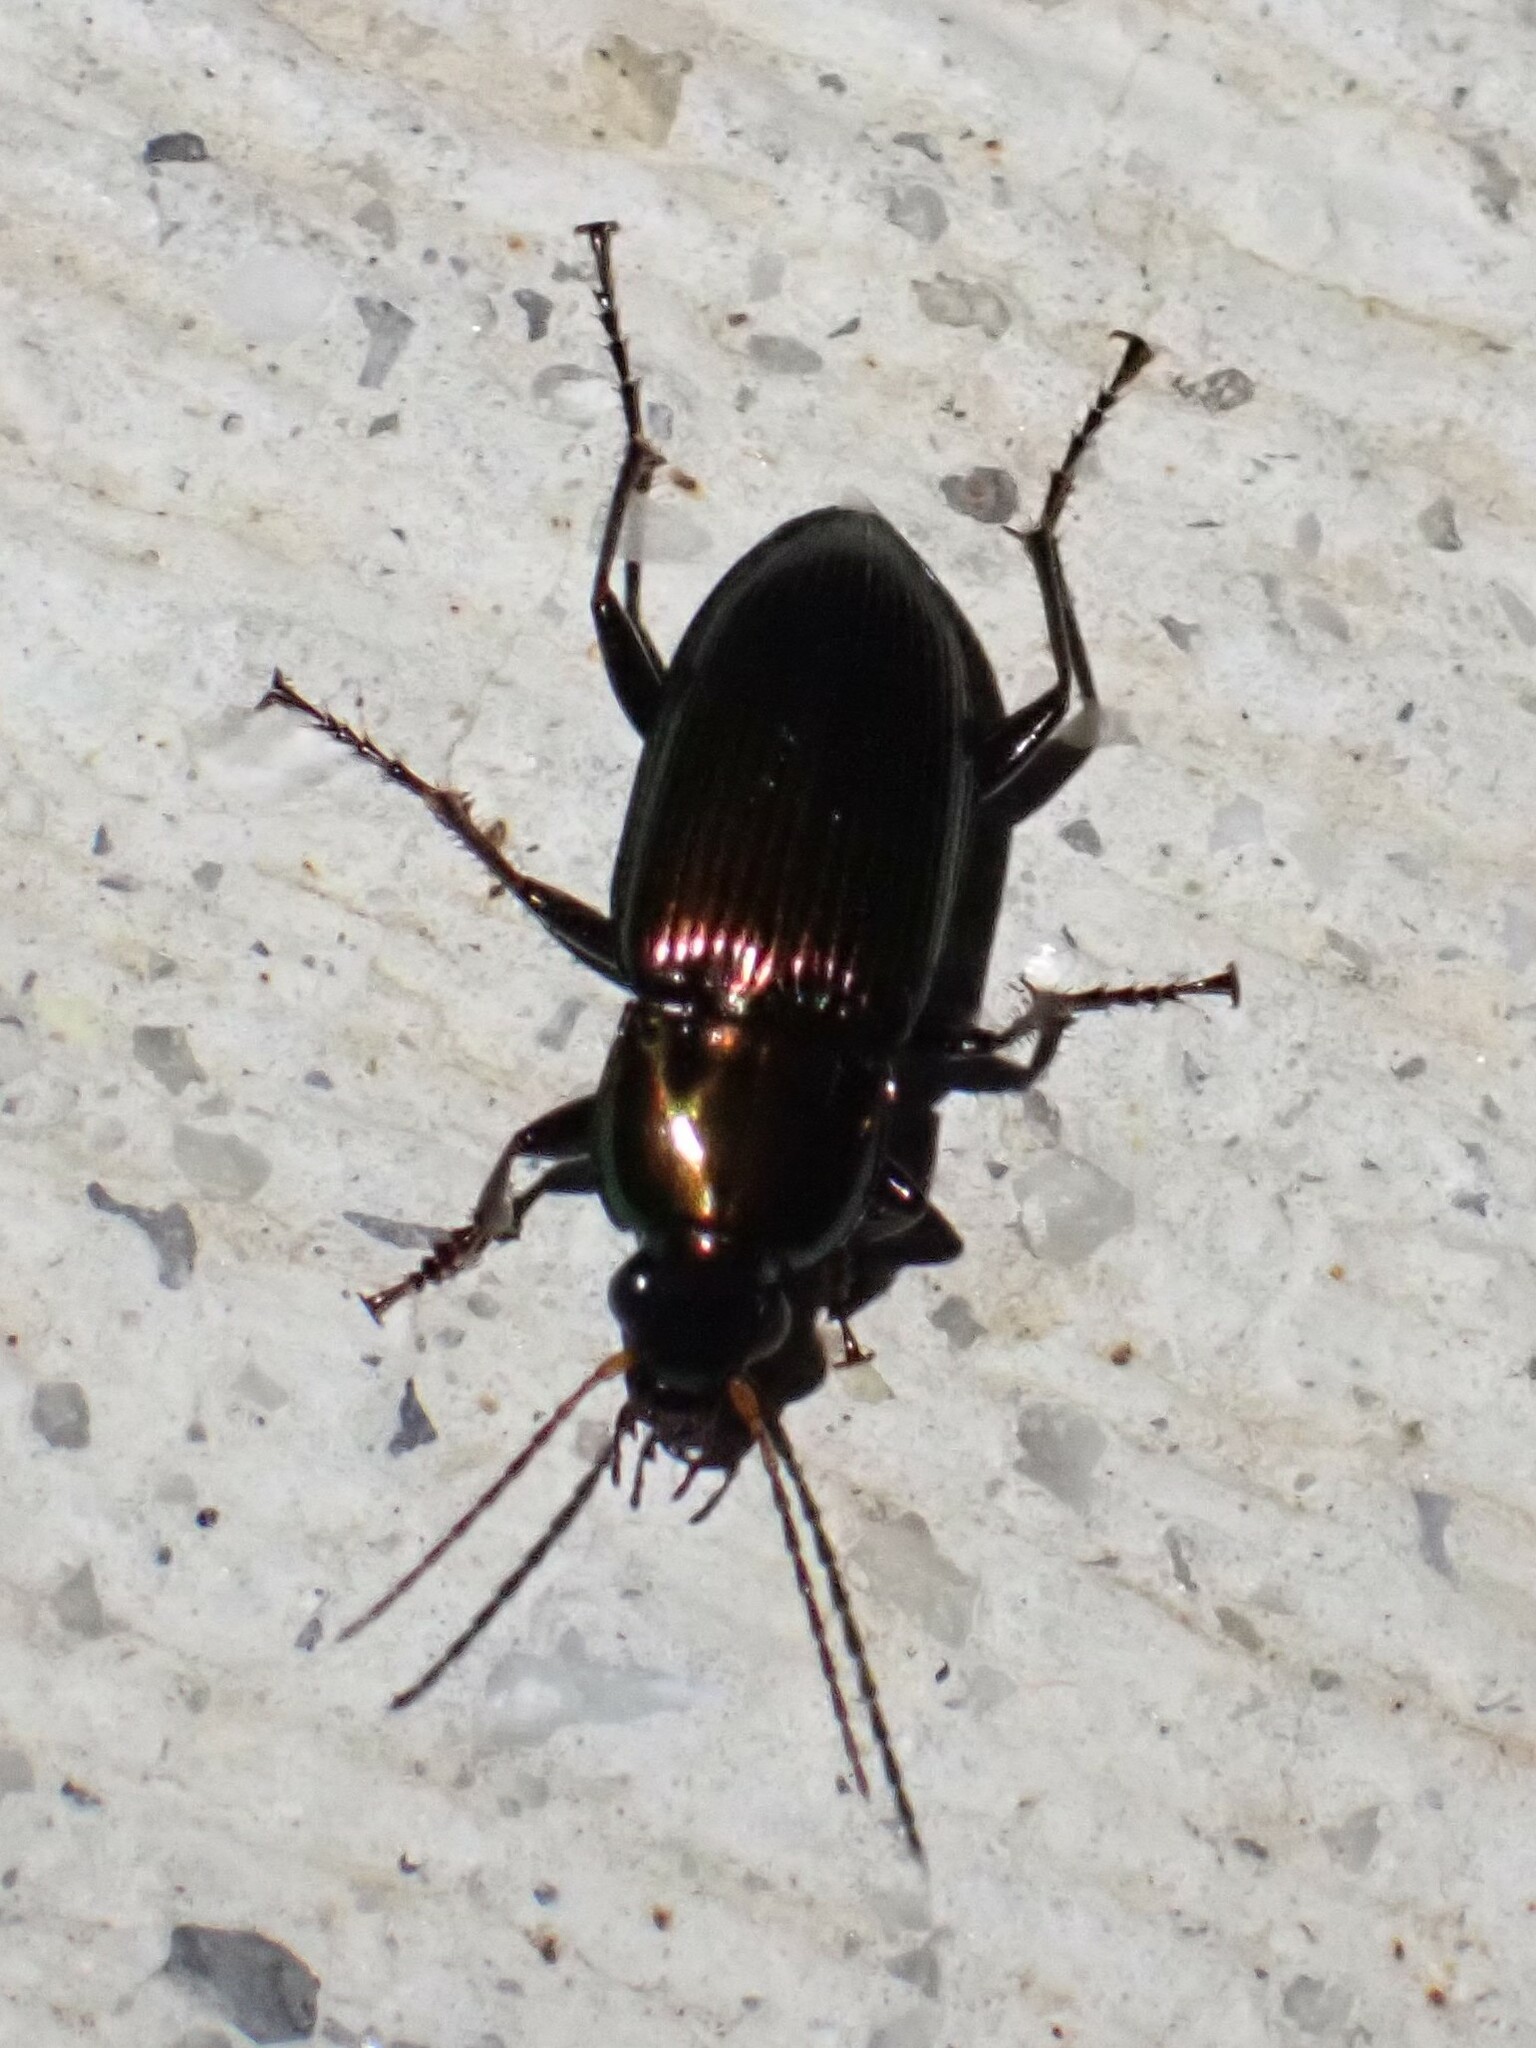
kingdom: Animalia
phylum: Arthropoda
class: Insecta
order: Coleoptera
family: Carabidae
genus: Poecilus
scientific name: Poecilus chalcites
